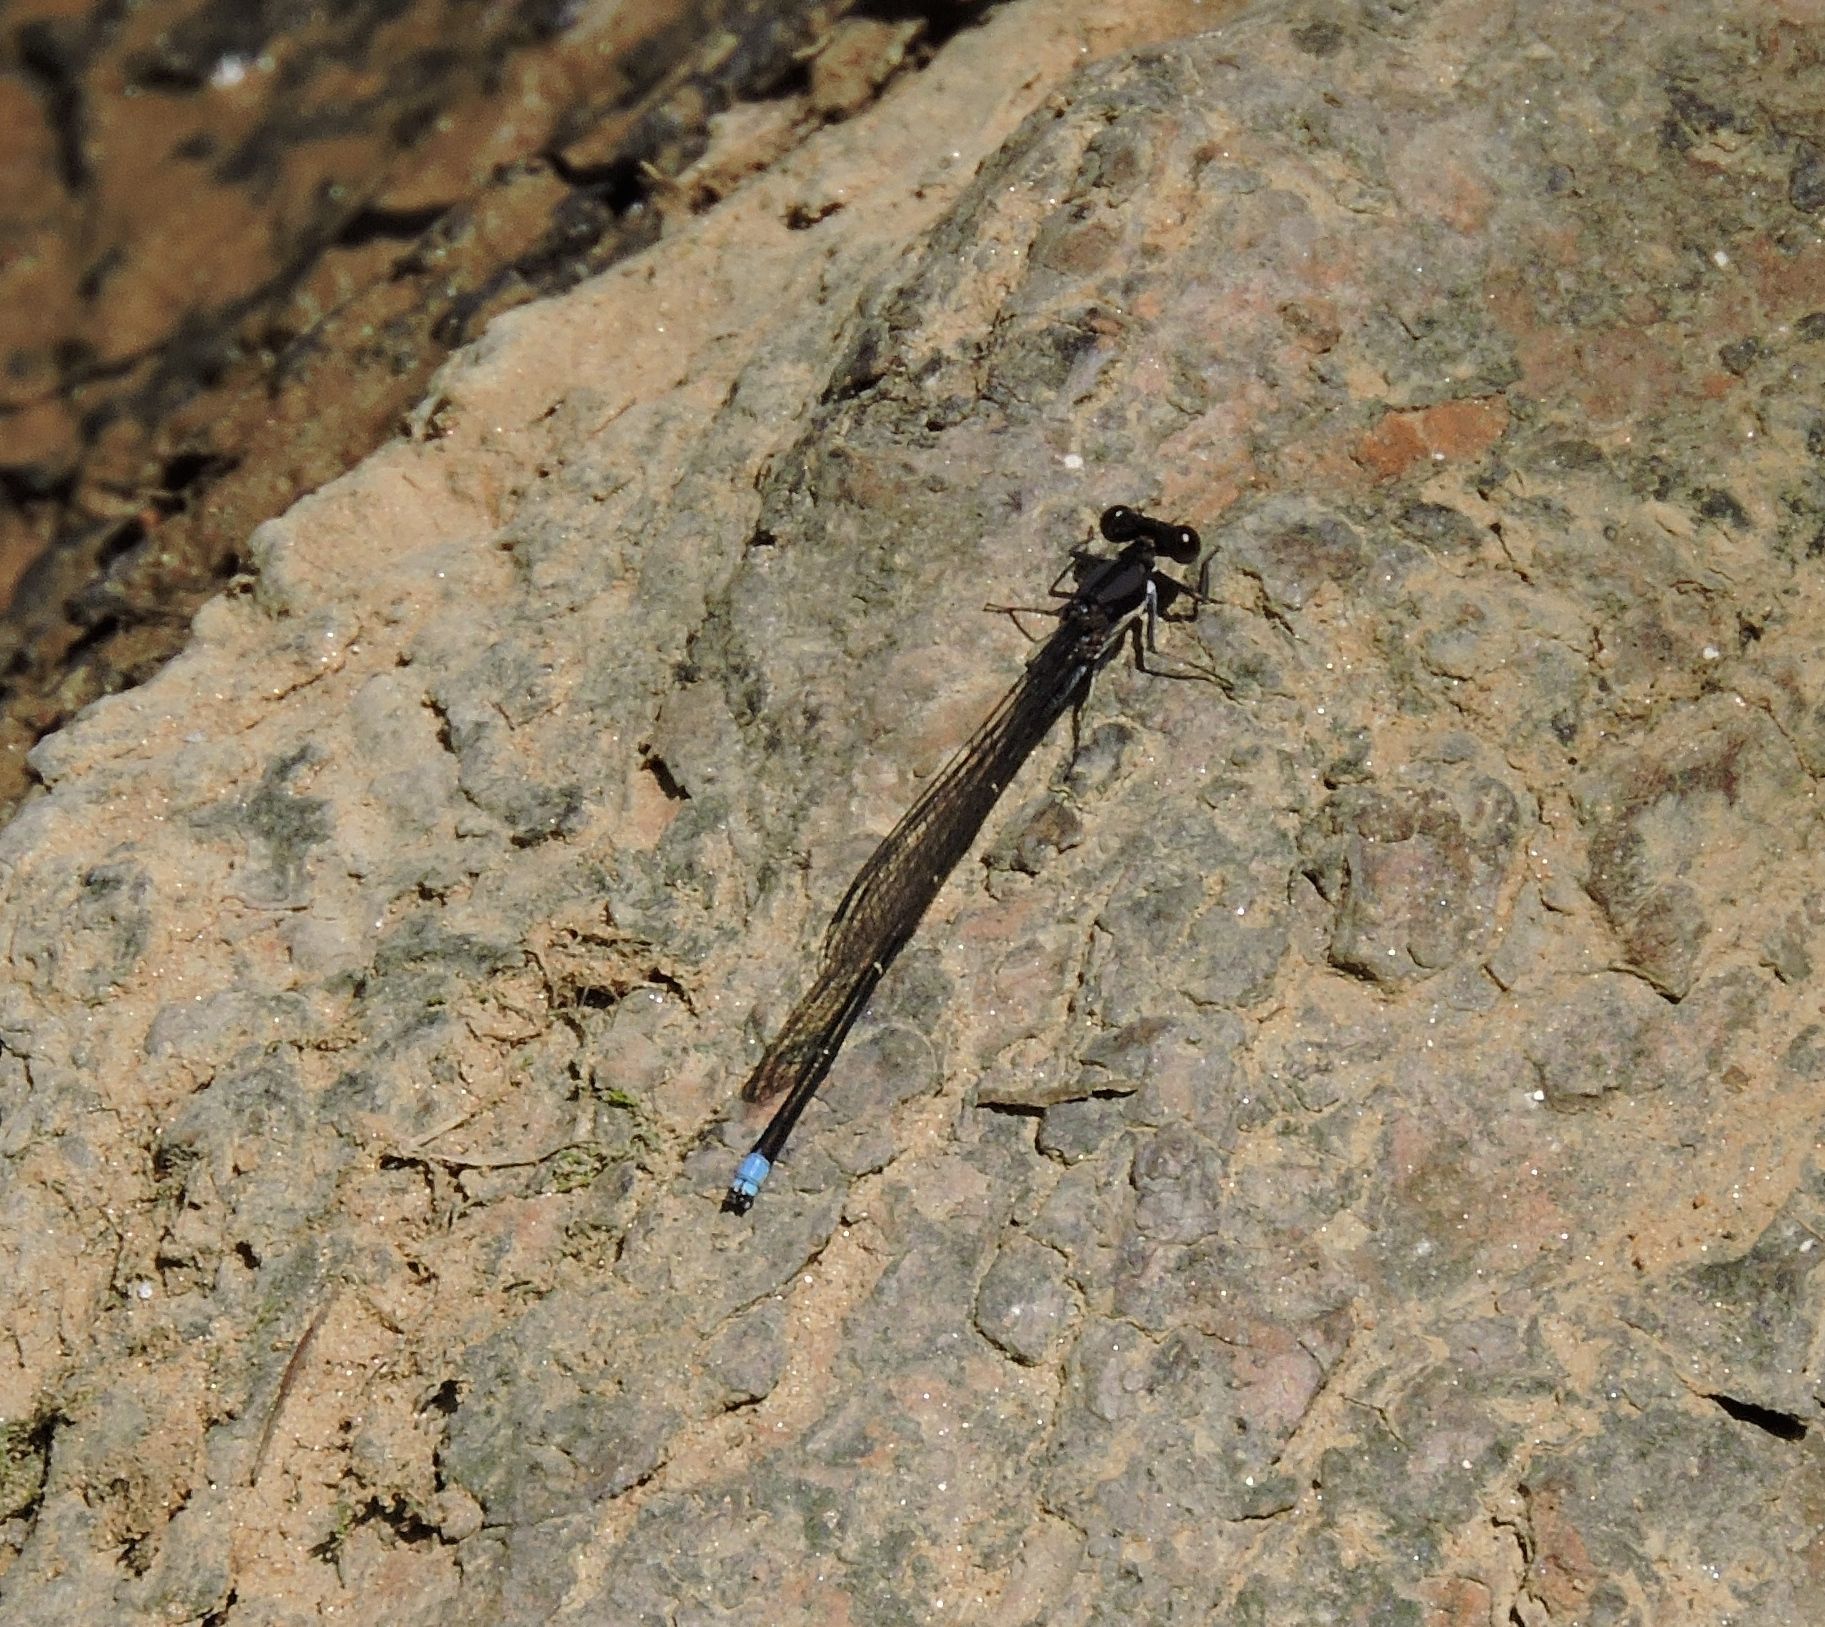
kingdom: Animalia
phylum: Arthropoda
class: Insecta
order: Odonata
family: Coenagrionidae
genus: Argia
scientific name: Argia tibialis
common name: Blue-tipped dancer
